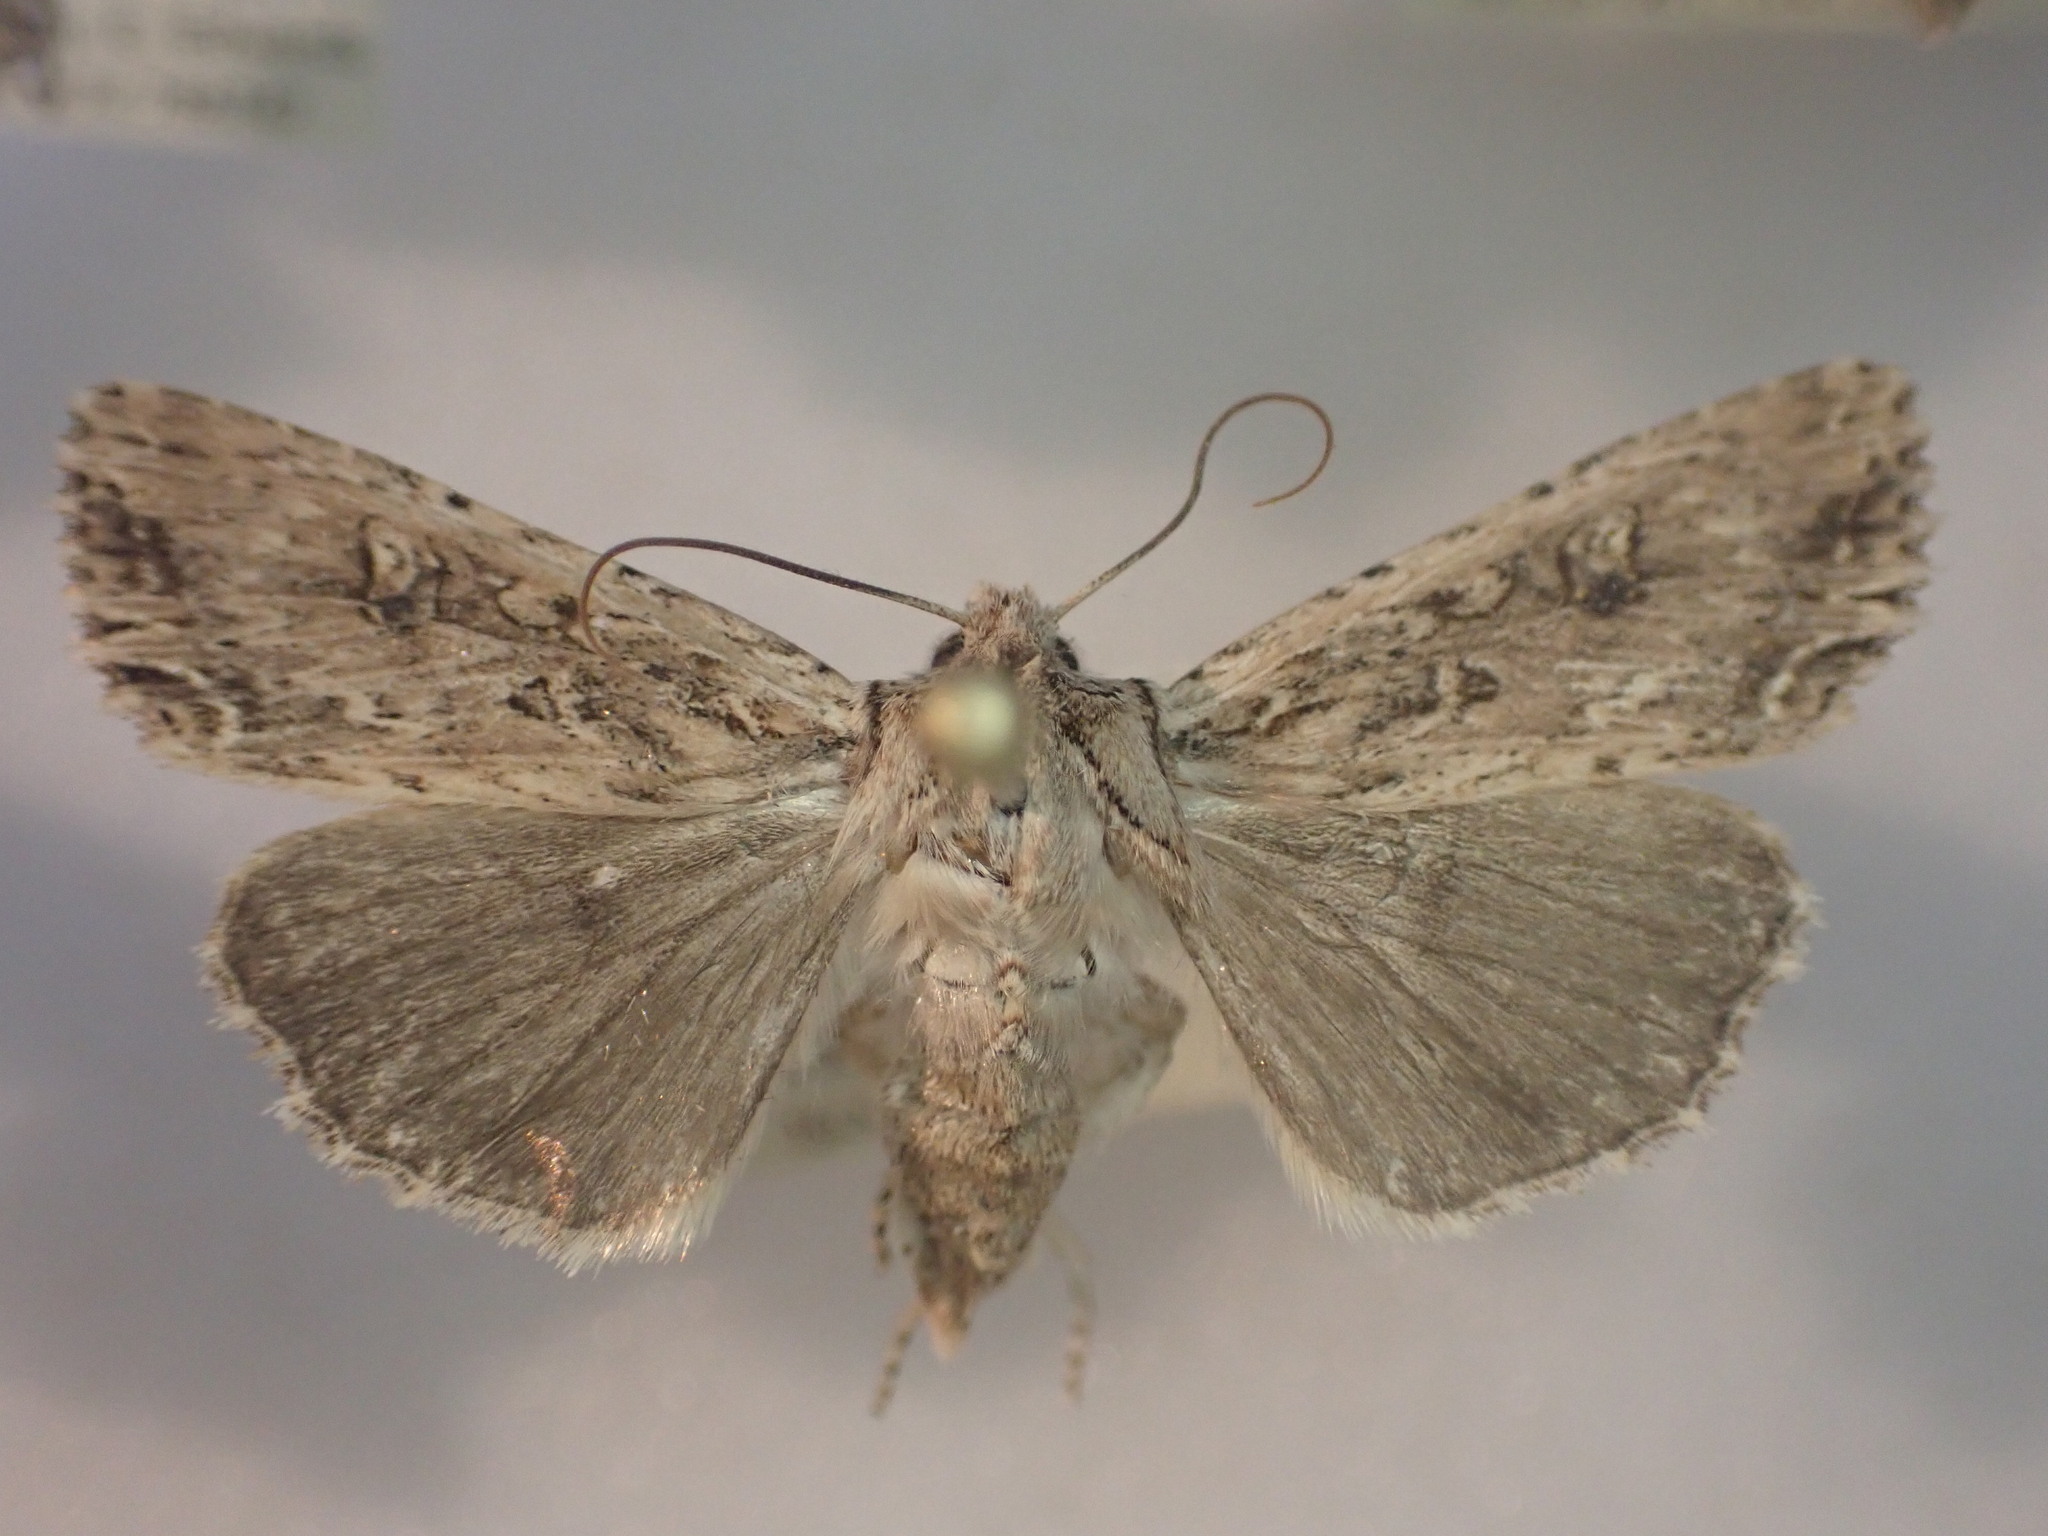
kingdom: Animalia
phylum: Arthropoda
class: Insecta
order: Lepidoptera
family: Noctuidae
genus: Ichneutica
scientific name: Ichneutica lignana
